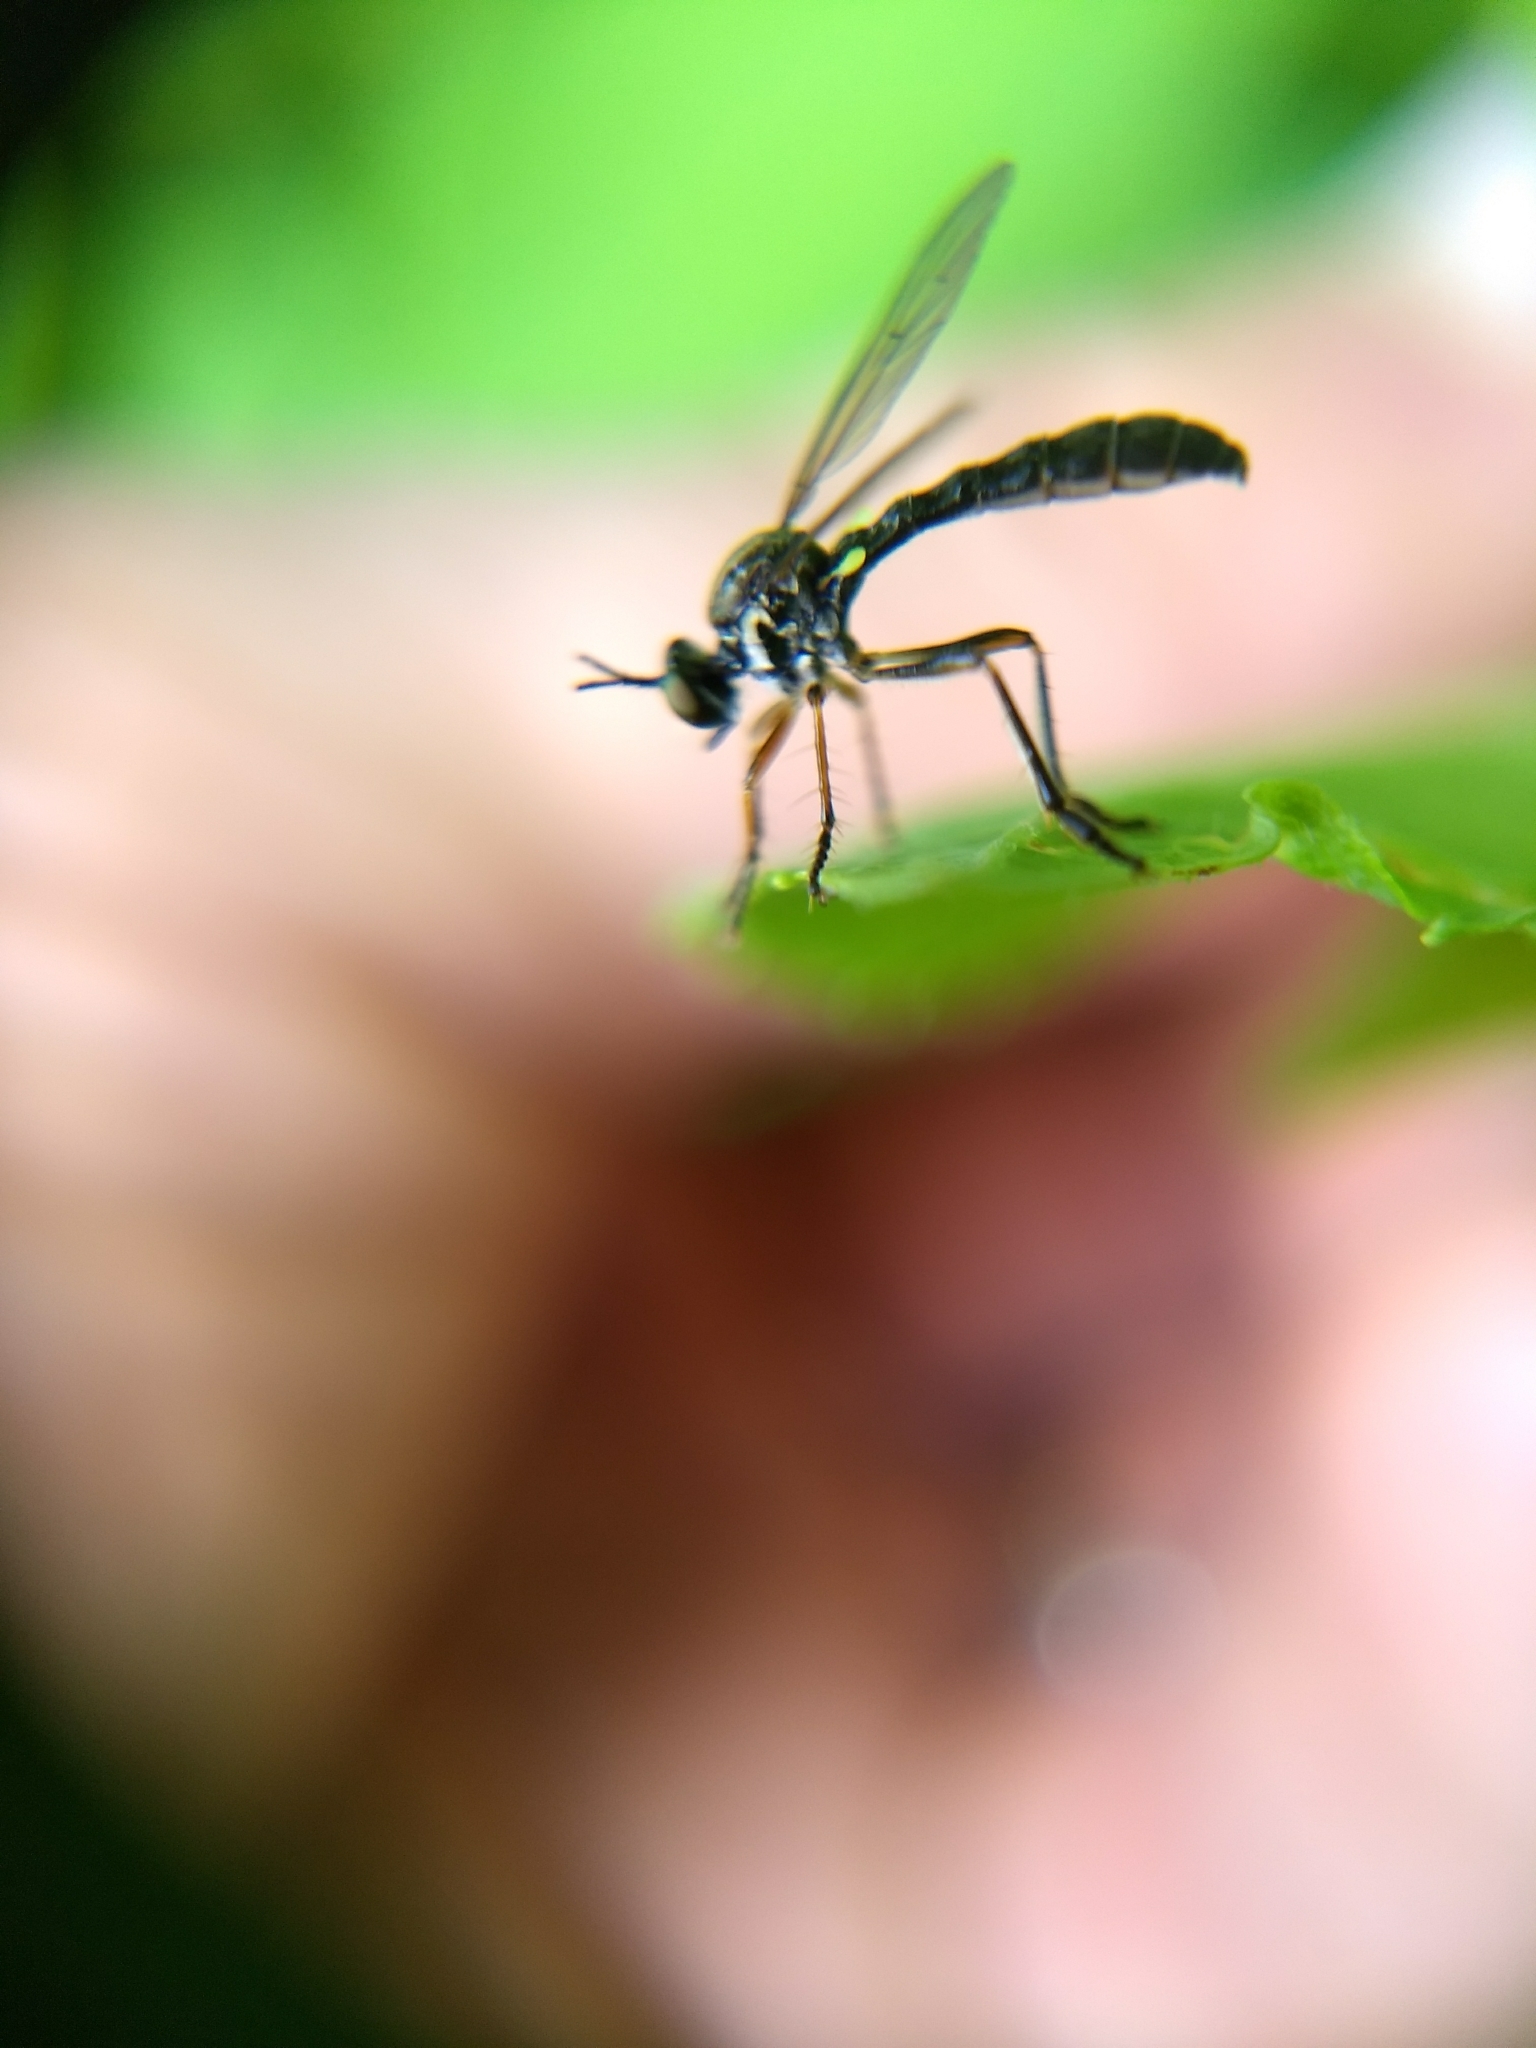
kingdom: Animalia
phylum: Arthropoda
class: Insecta
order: Diptera
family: Asilidae
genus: Dioctria
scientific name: Dioctria hyalipennis
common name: Stripe-legged robberfly
